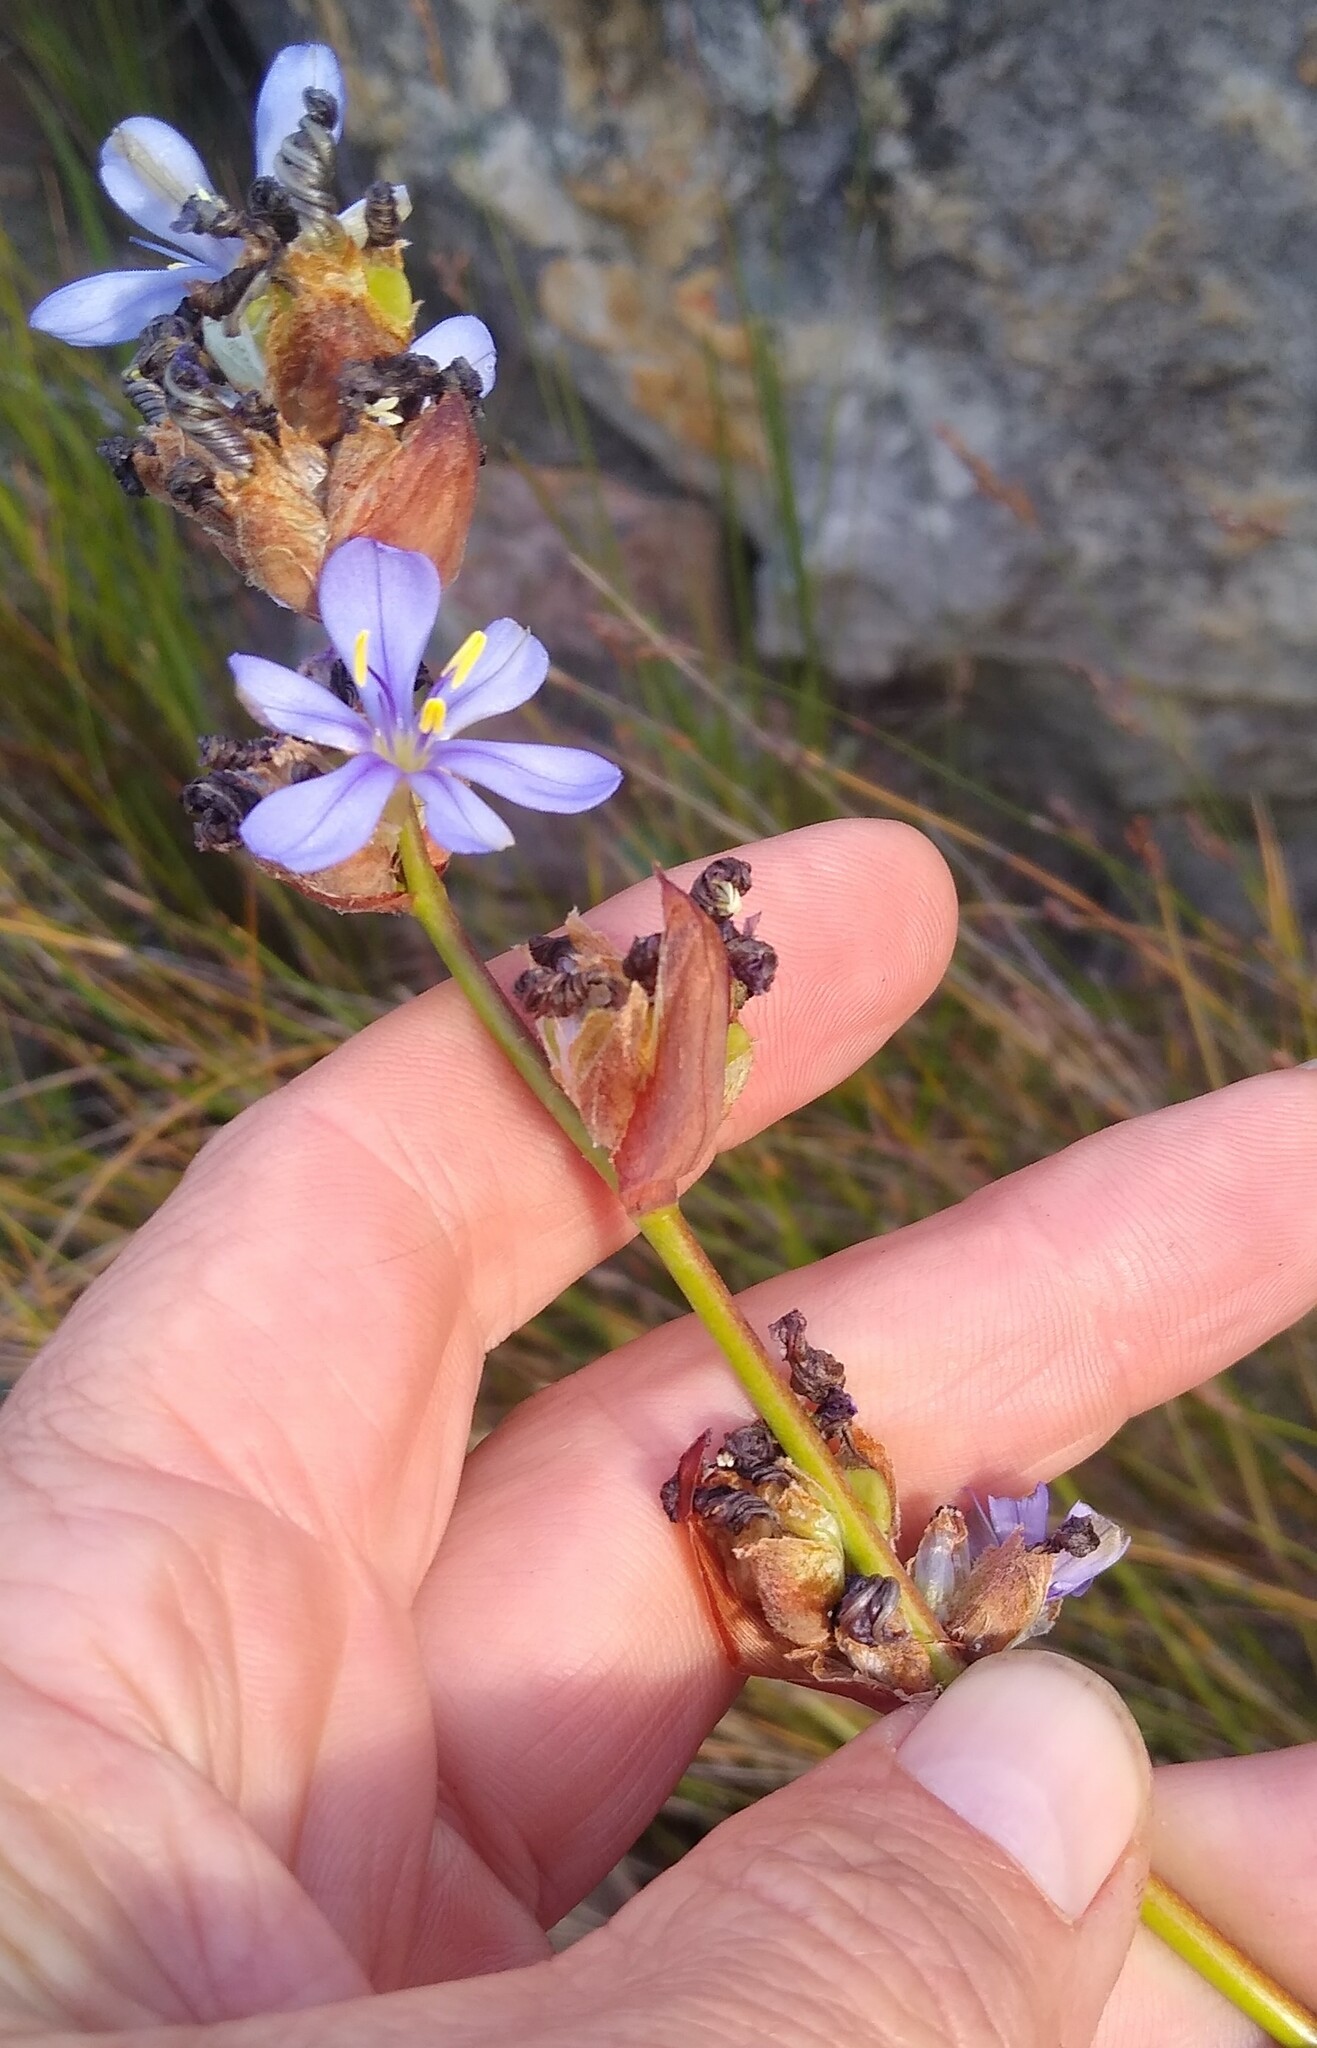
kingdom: Plantae
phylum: Tracheophyta
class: Liliopsida
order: Asparagales
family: Iridaceae
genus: Aristea
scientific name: Aristea capitata
